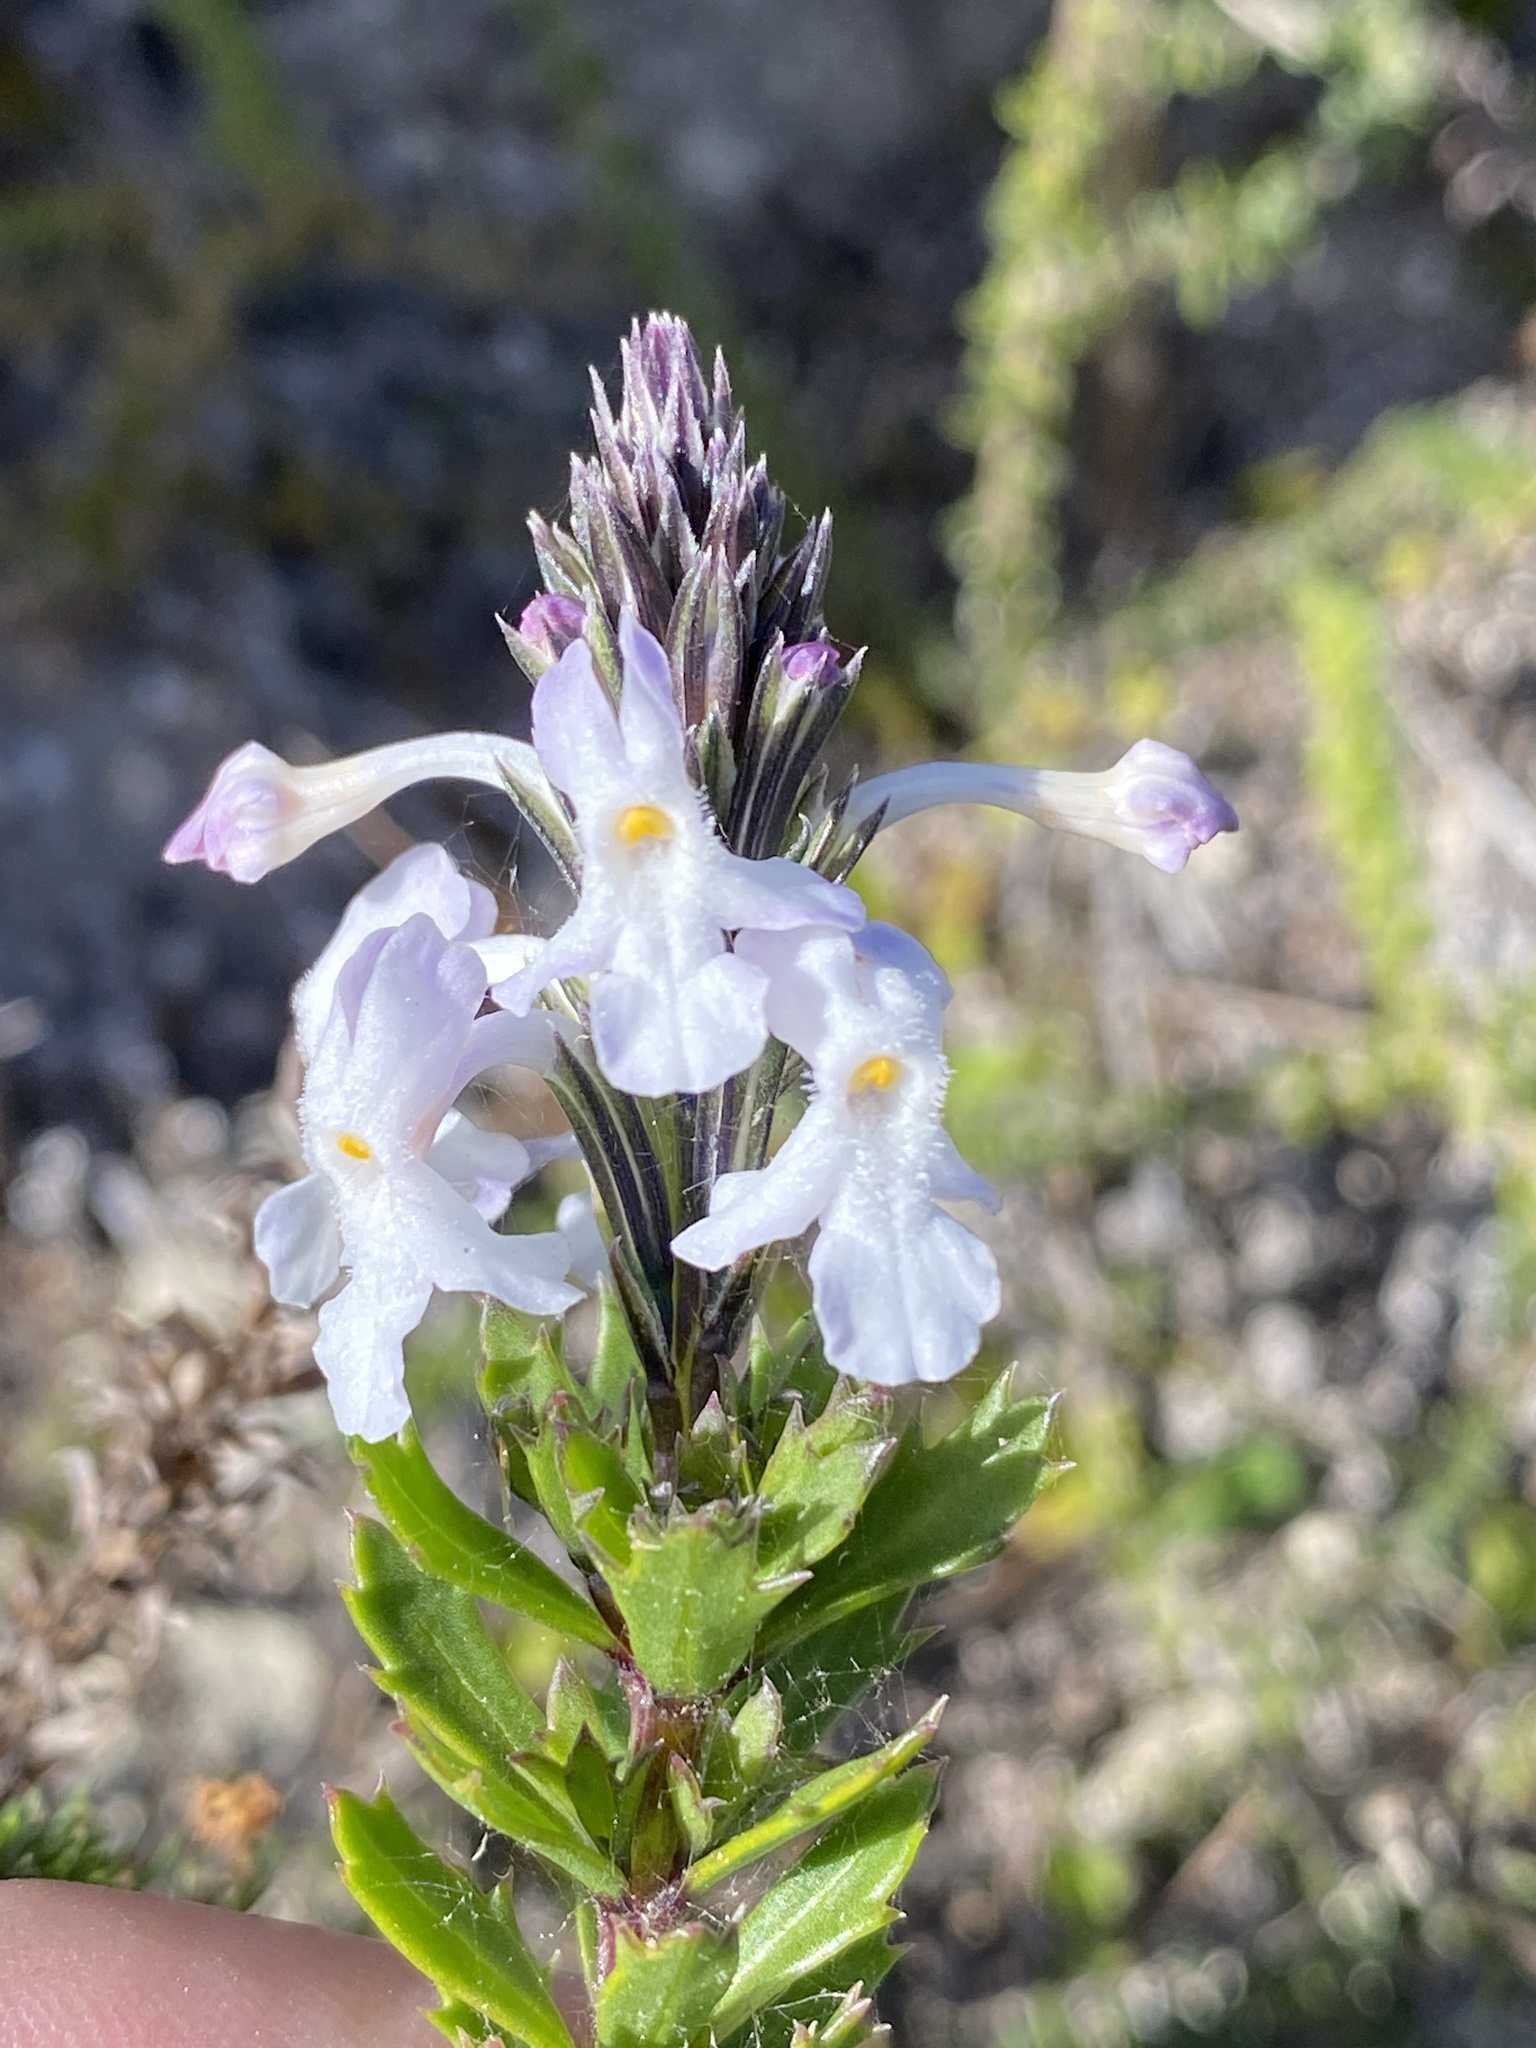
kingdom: Plantae
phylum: Tracheophyta
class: Magnoliopsida
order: Lamiales
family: Verbenaceae
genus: Chascanum
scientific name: Chascanum cernuum
